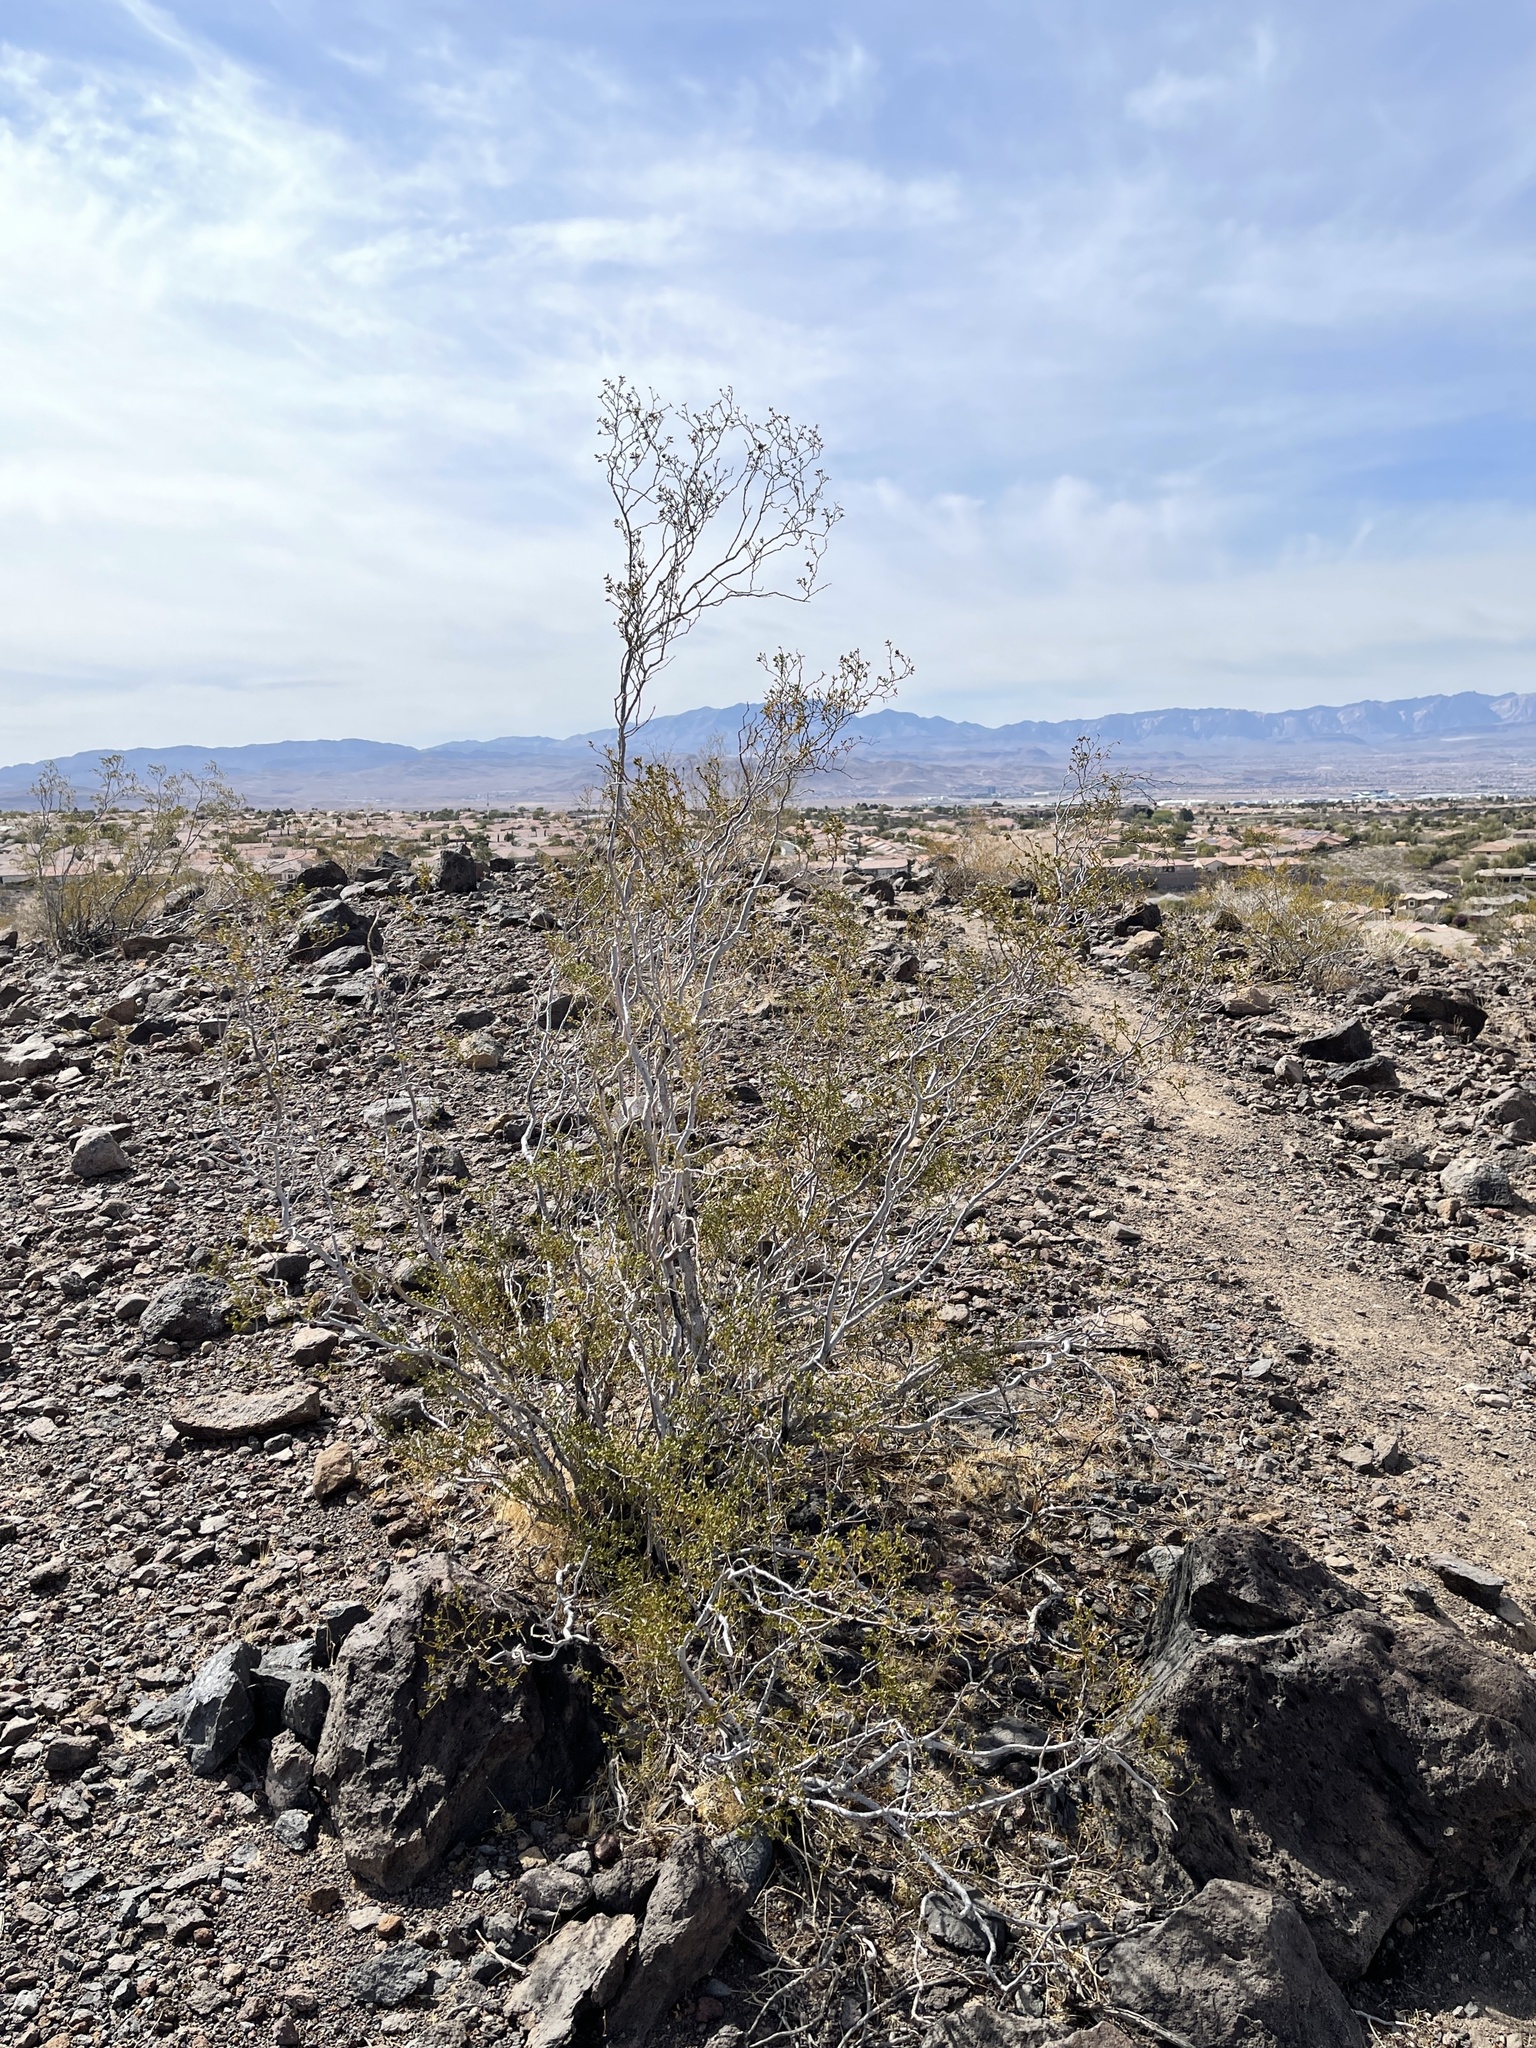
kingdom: Plantae
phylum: Tracheophyta
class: Magnoliopsida
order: Zygophyllales
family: Zygophyllaceae
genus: Larrea
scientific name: Larrea tridentata
